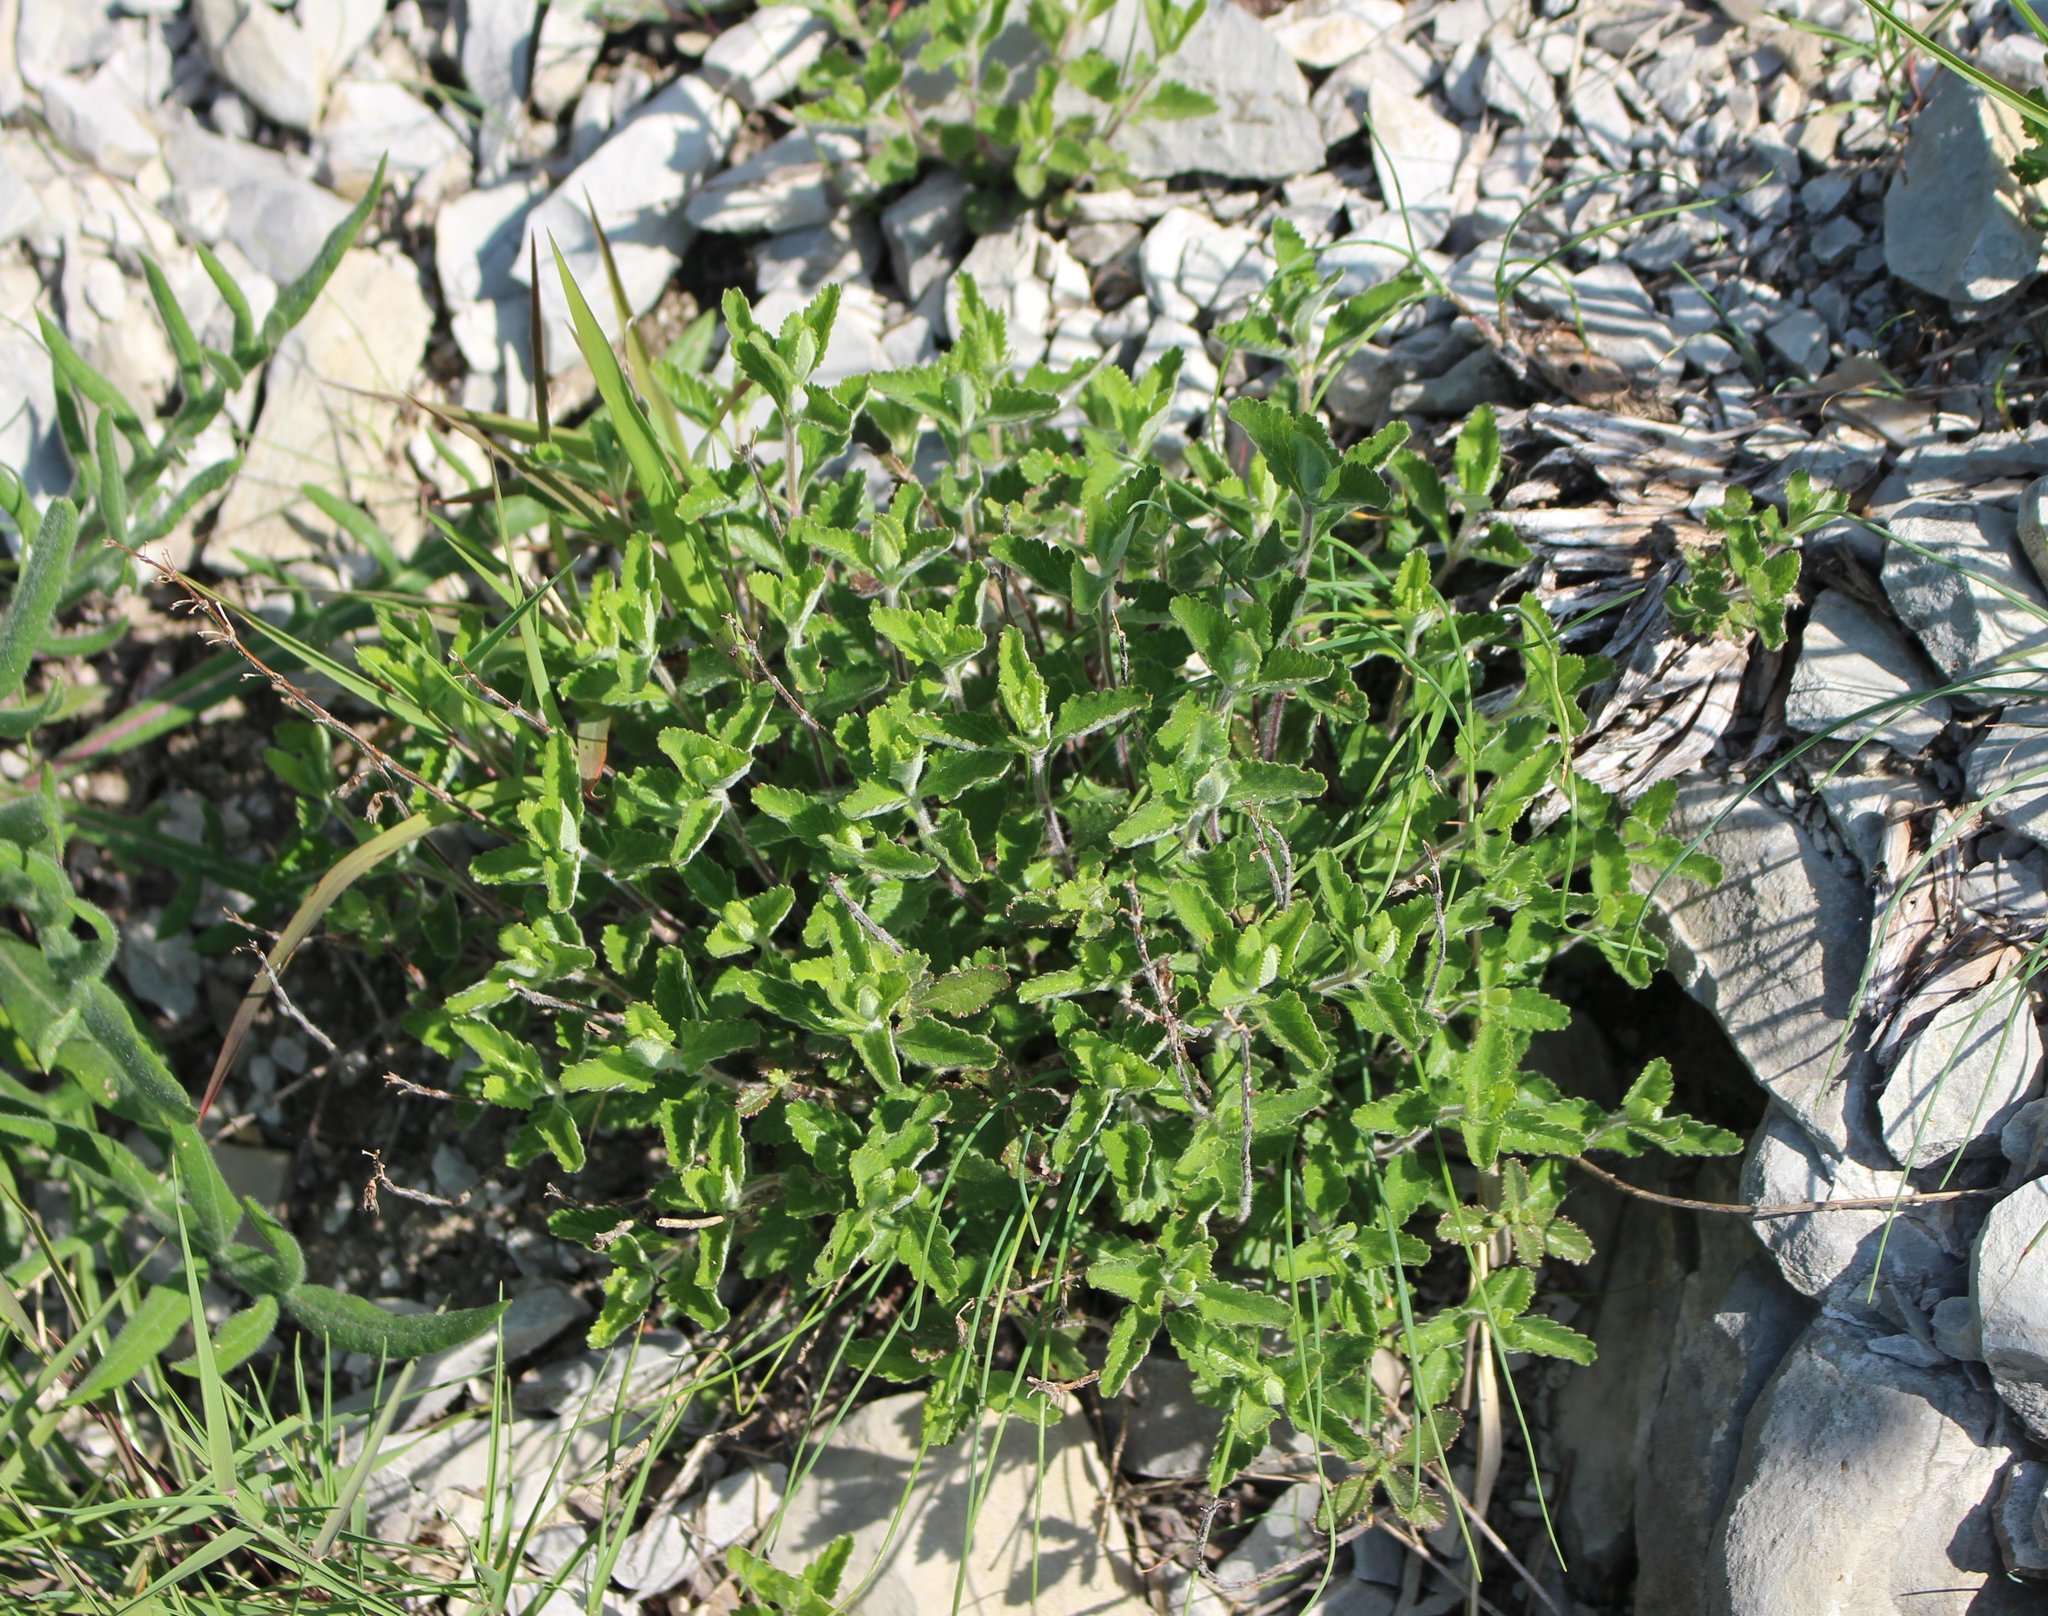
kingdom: Plantae
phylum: Tracheophyta
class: Magnoliopsida
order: Lamiales
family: Lamiaceae
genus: Teucrium
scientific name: Teucrium chamaedrys
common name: Wall germander
